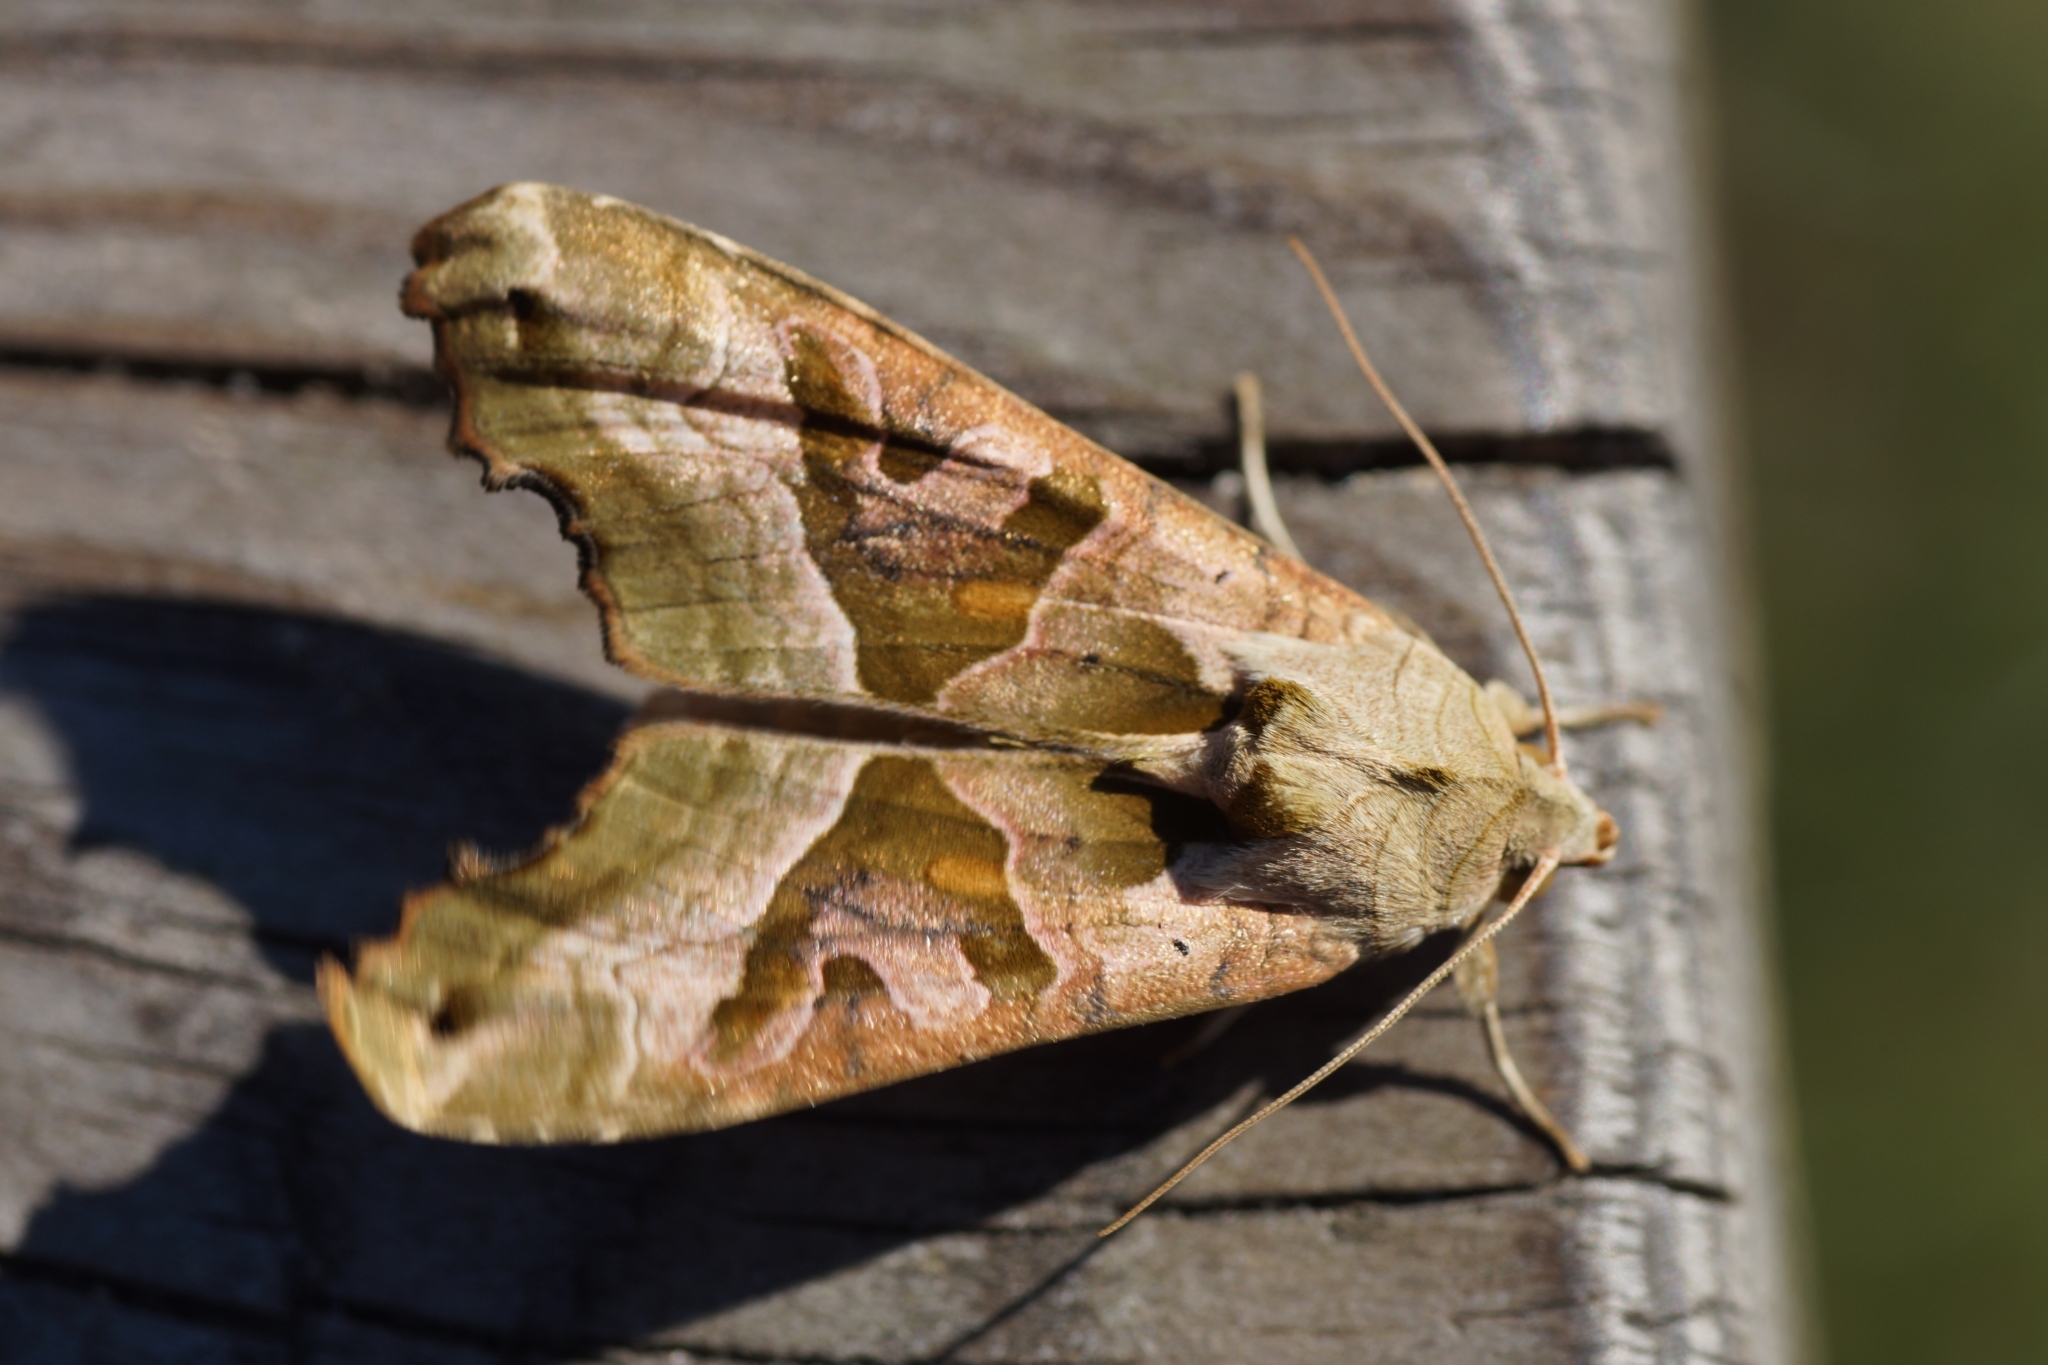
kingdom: Animalia
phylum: Arthropoda
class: Insecta
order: Lepidoptera
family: Noctuidae
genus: Phlogophora
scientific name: Phlogophora meticulosa
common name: Angle shades
